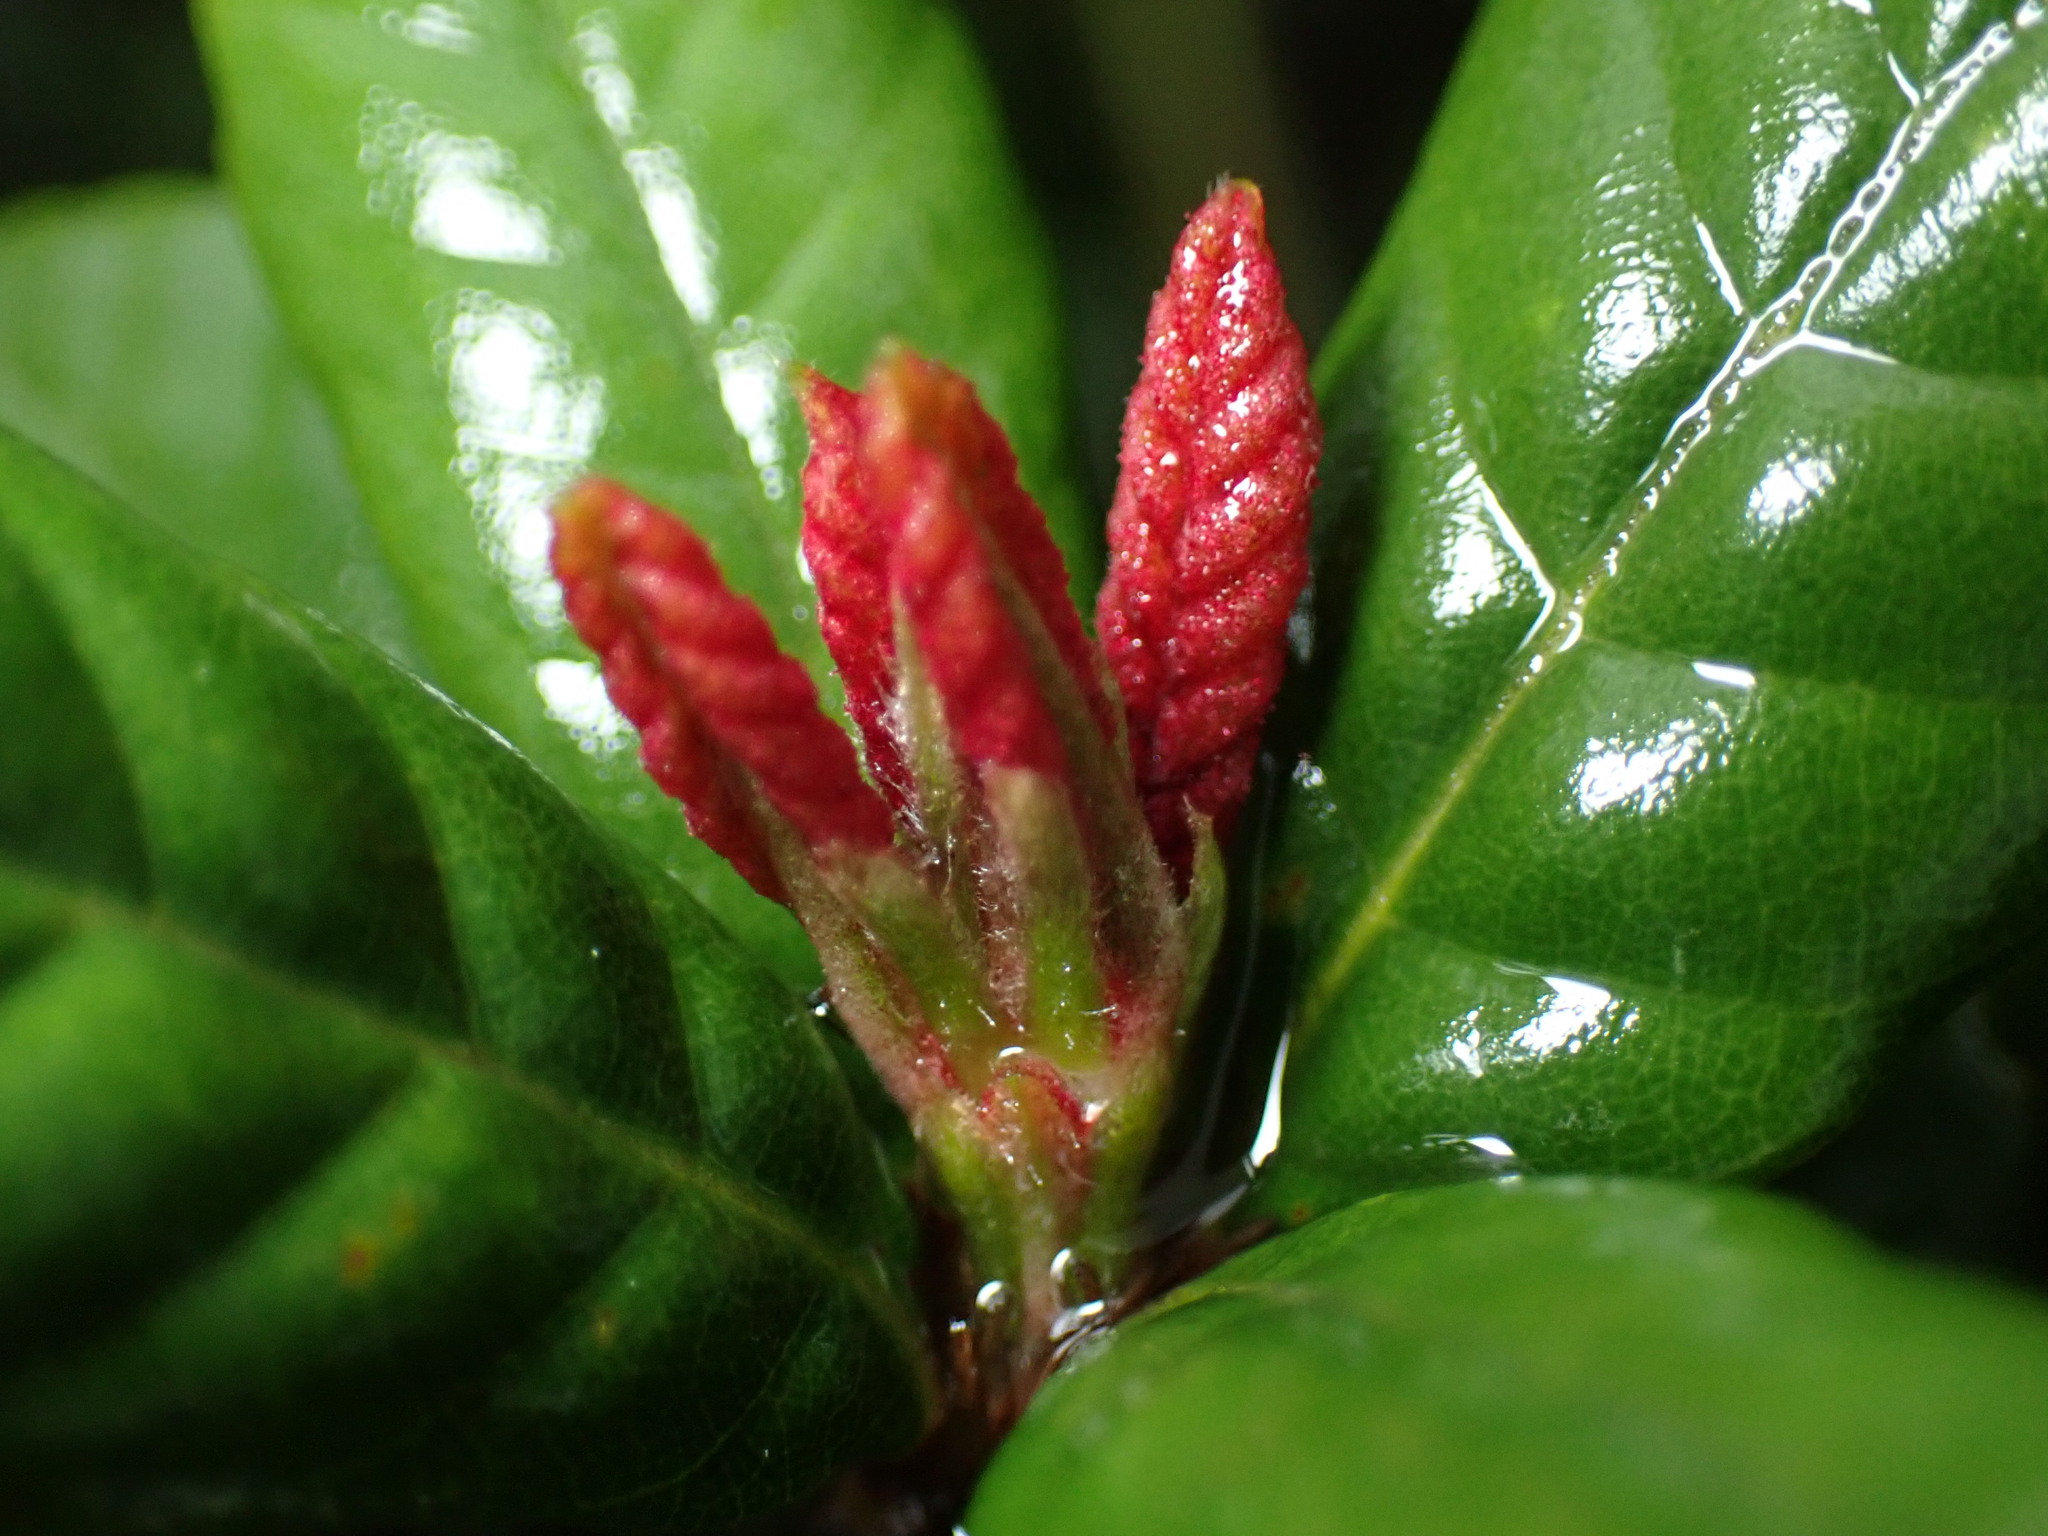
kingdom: Plantae
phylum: Tracheophyta
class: Magnoliopsida
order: Fagales
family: Fagaceae
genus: Lithocarpus
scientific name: Lithocarpus quercifolius
